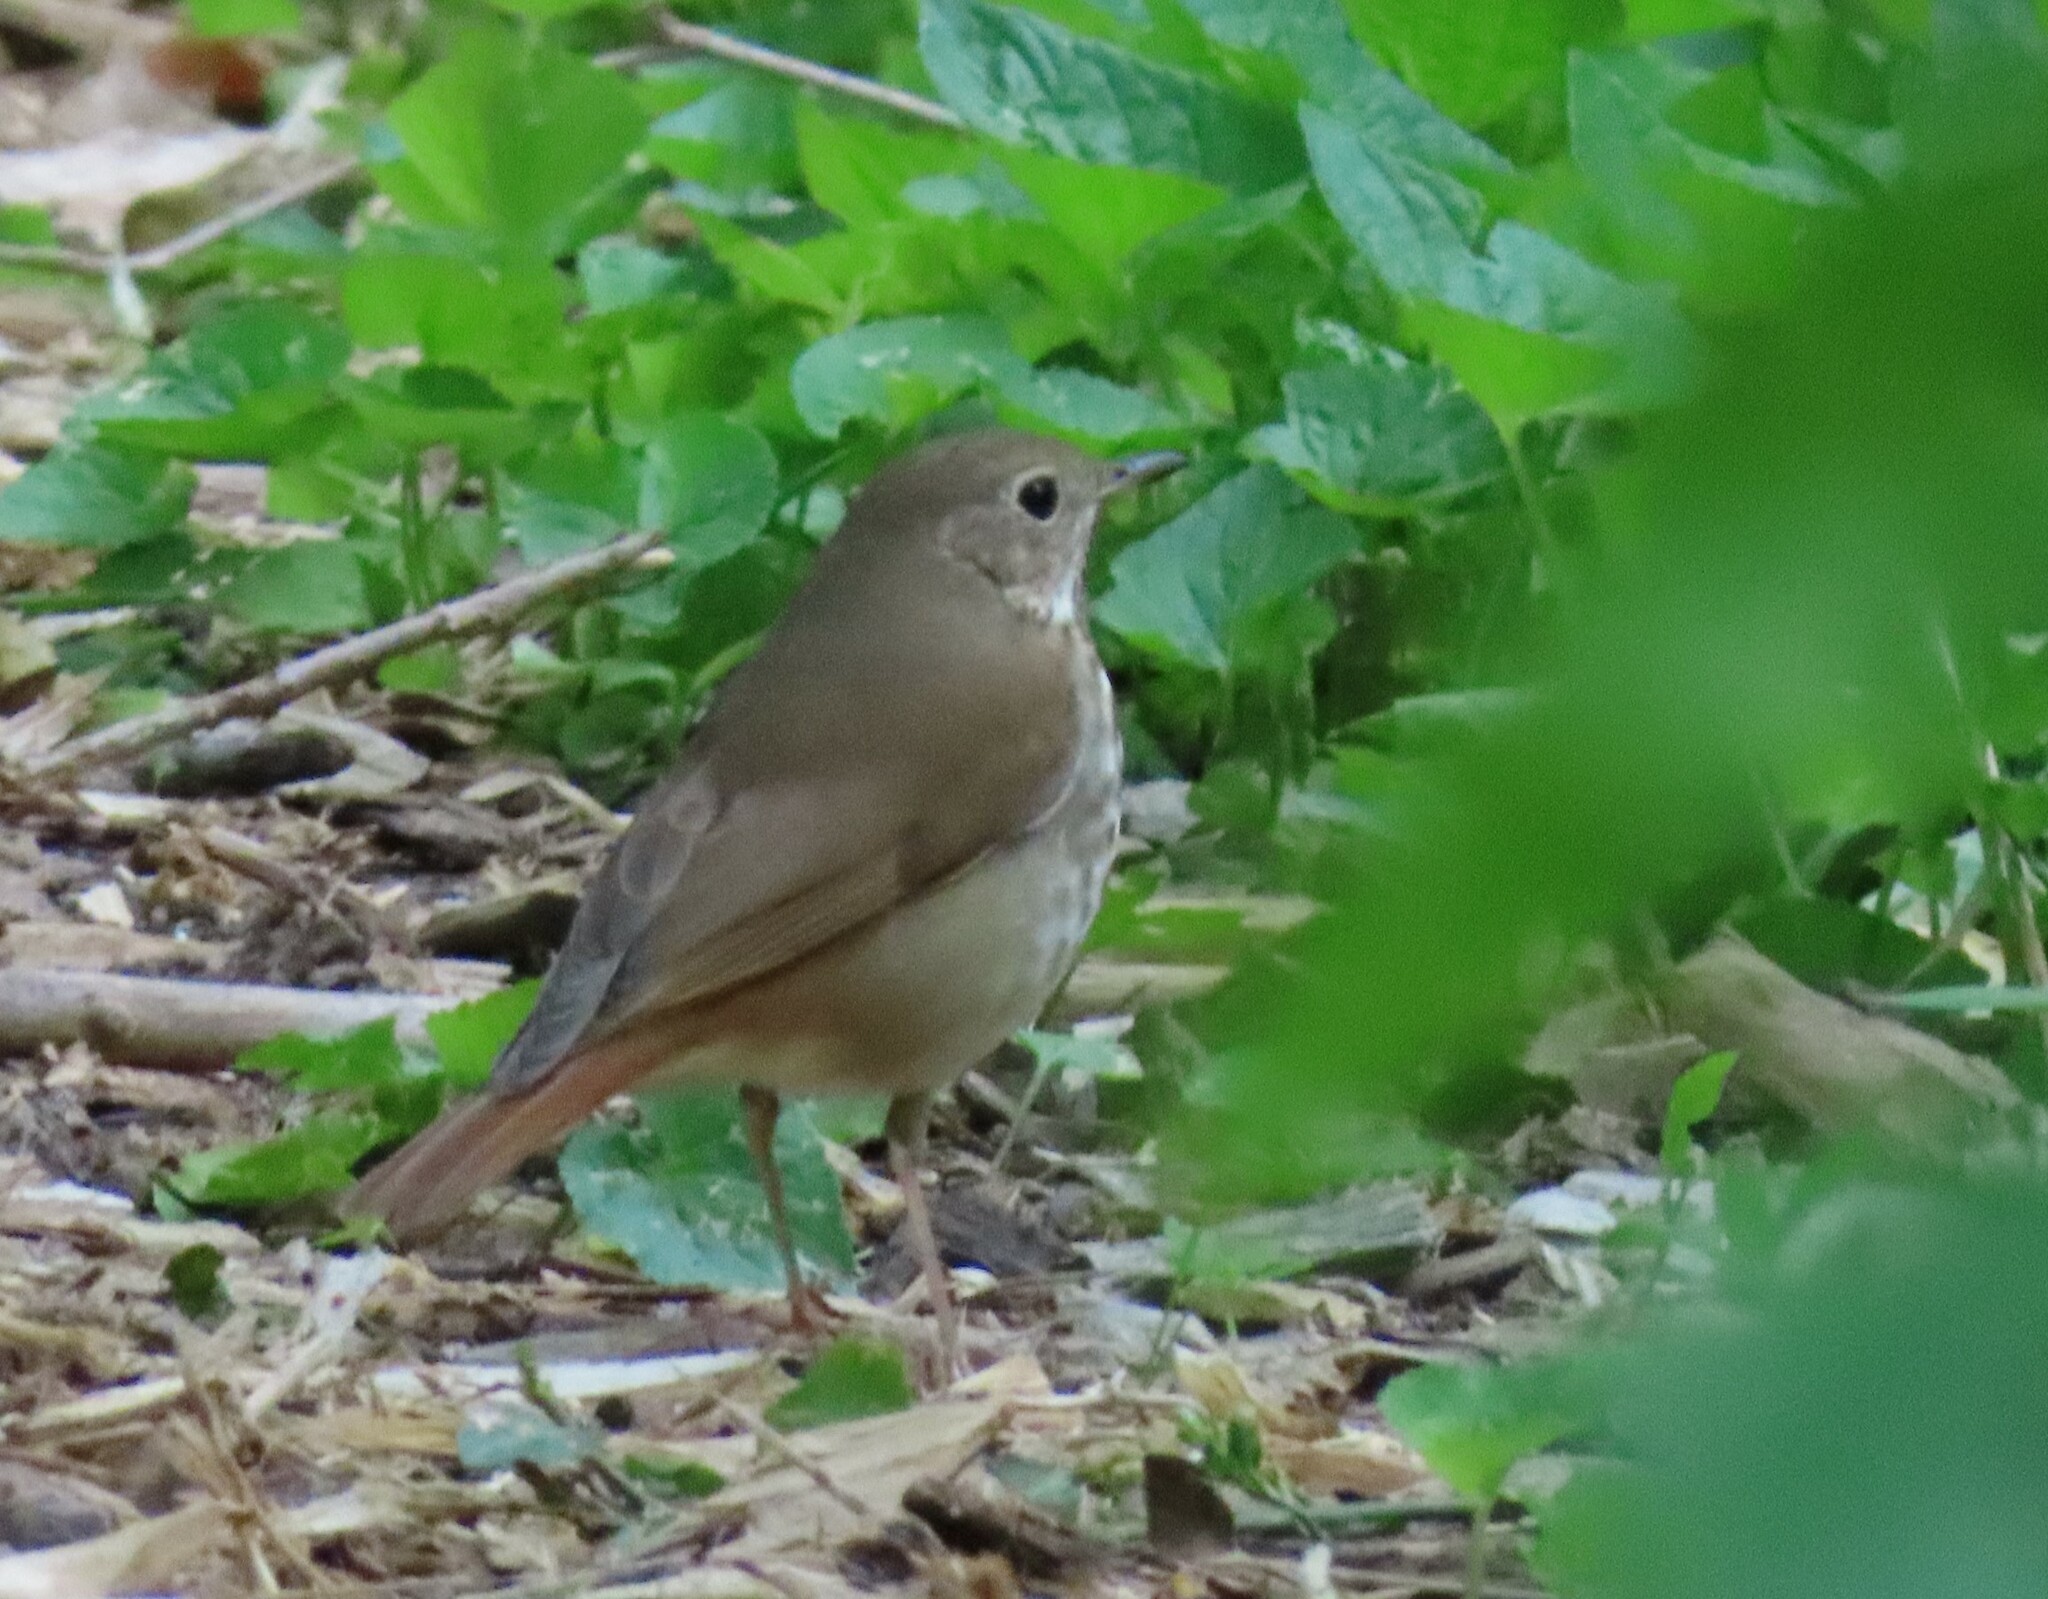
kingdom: Animalia
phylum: Chordata
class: Aves
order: Passeriformes
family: Turdidae
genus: Catharus
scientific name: Catharus guttatus
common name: Hermit thrush
